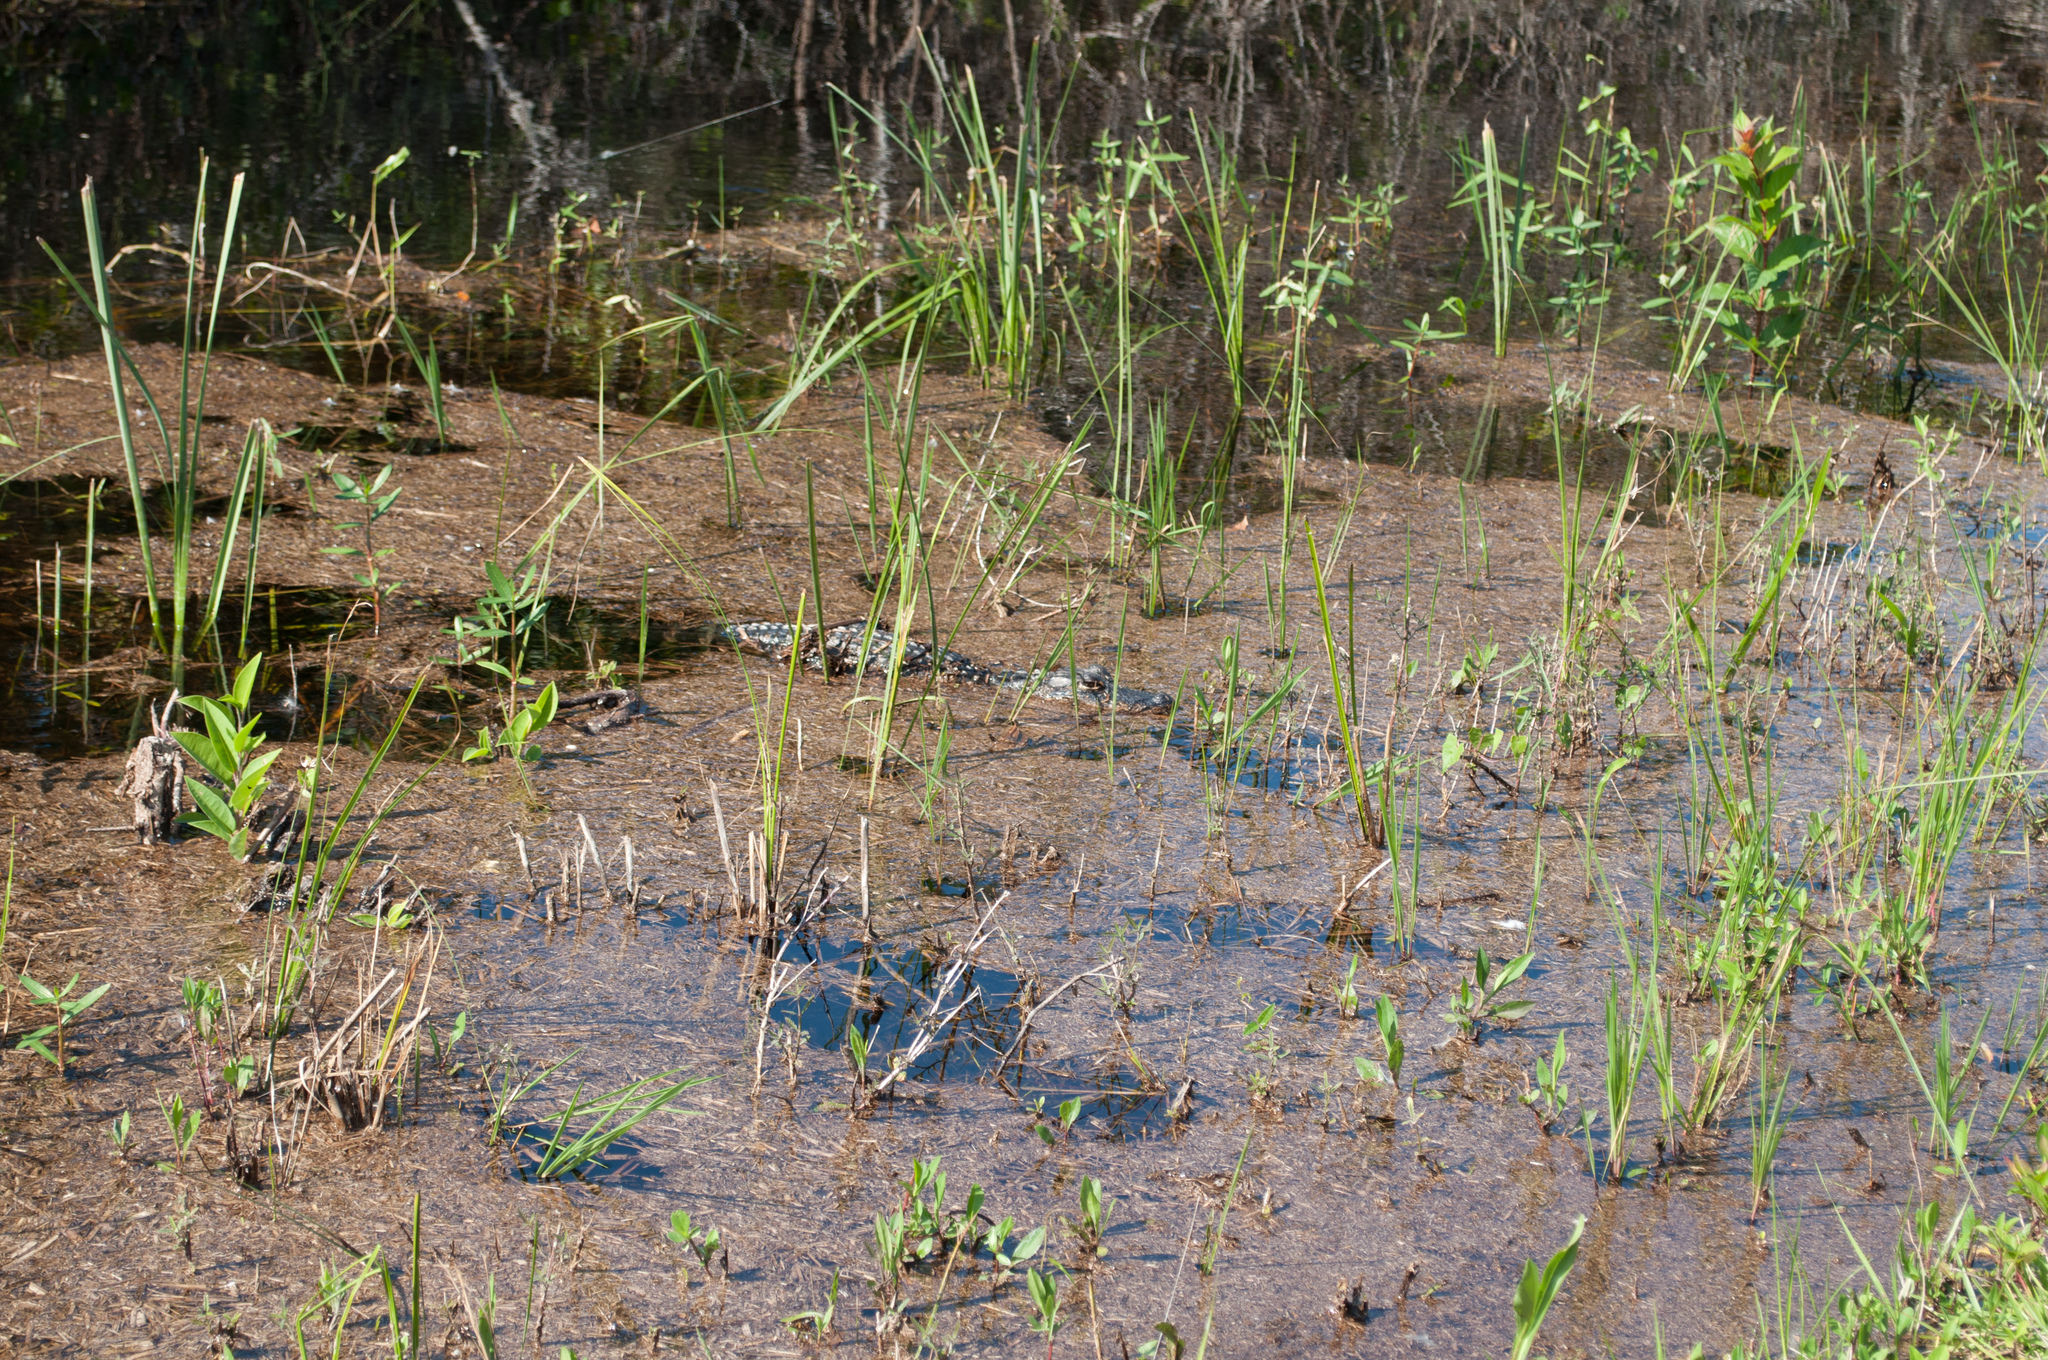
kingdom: Animalia
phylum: Chordata
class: Crocodylia
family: Alligatoridae
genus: Alligator
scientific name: Alligator mississippiensis
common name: American alligator
